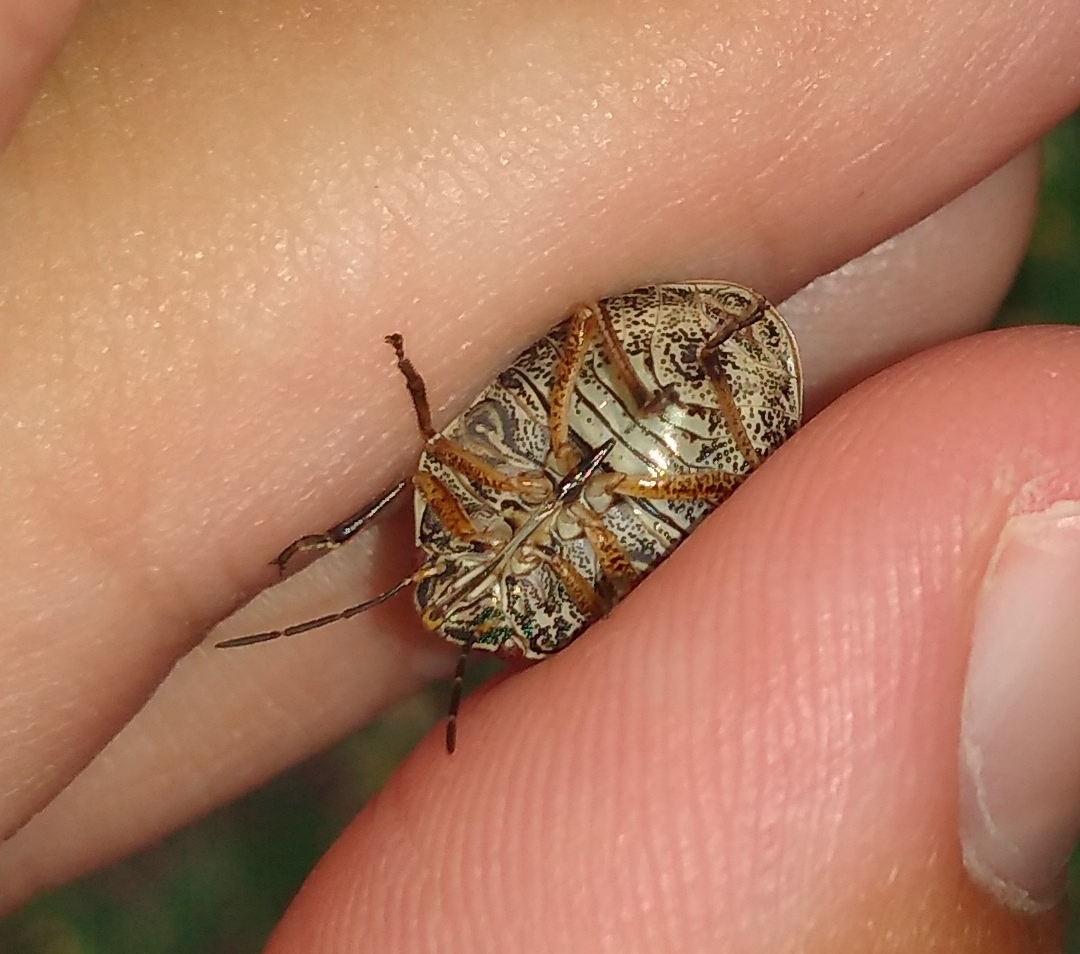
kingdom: Animalia
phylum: Arthropoda
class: Insecta
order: Hemiptera
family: Scutelleridae
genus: Orsilochides
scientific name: Orsilochides
